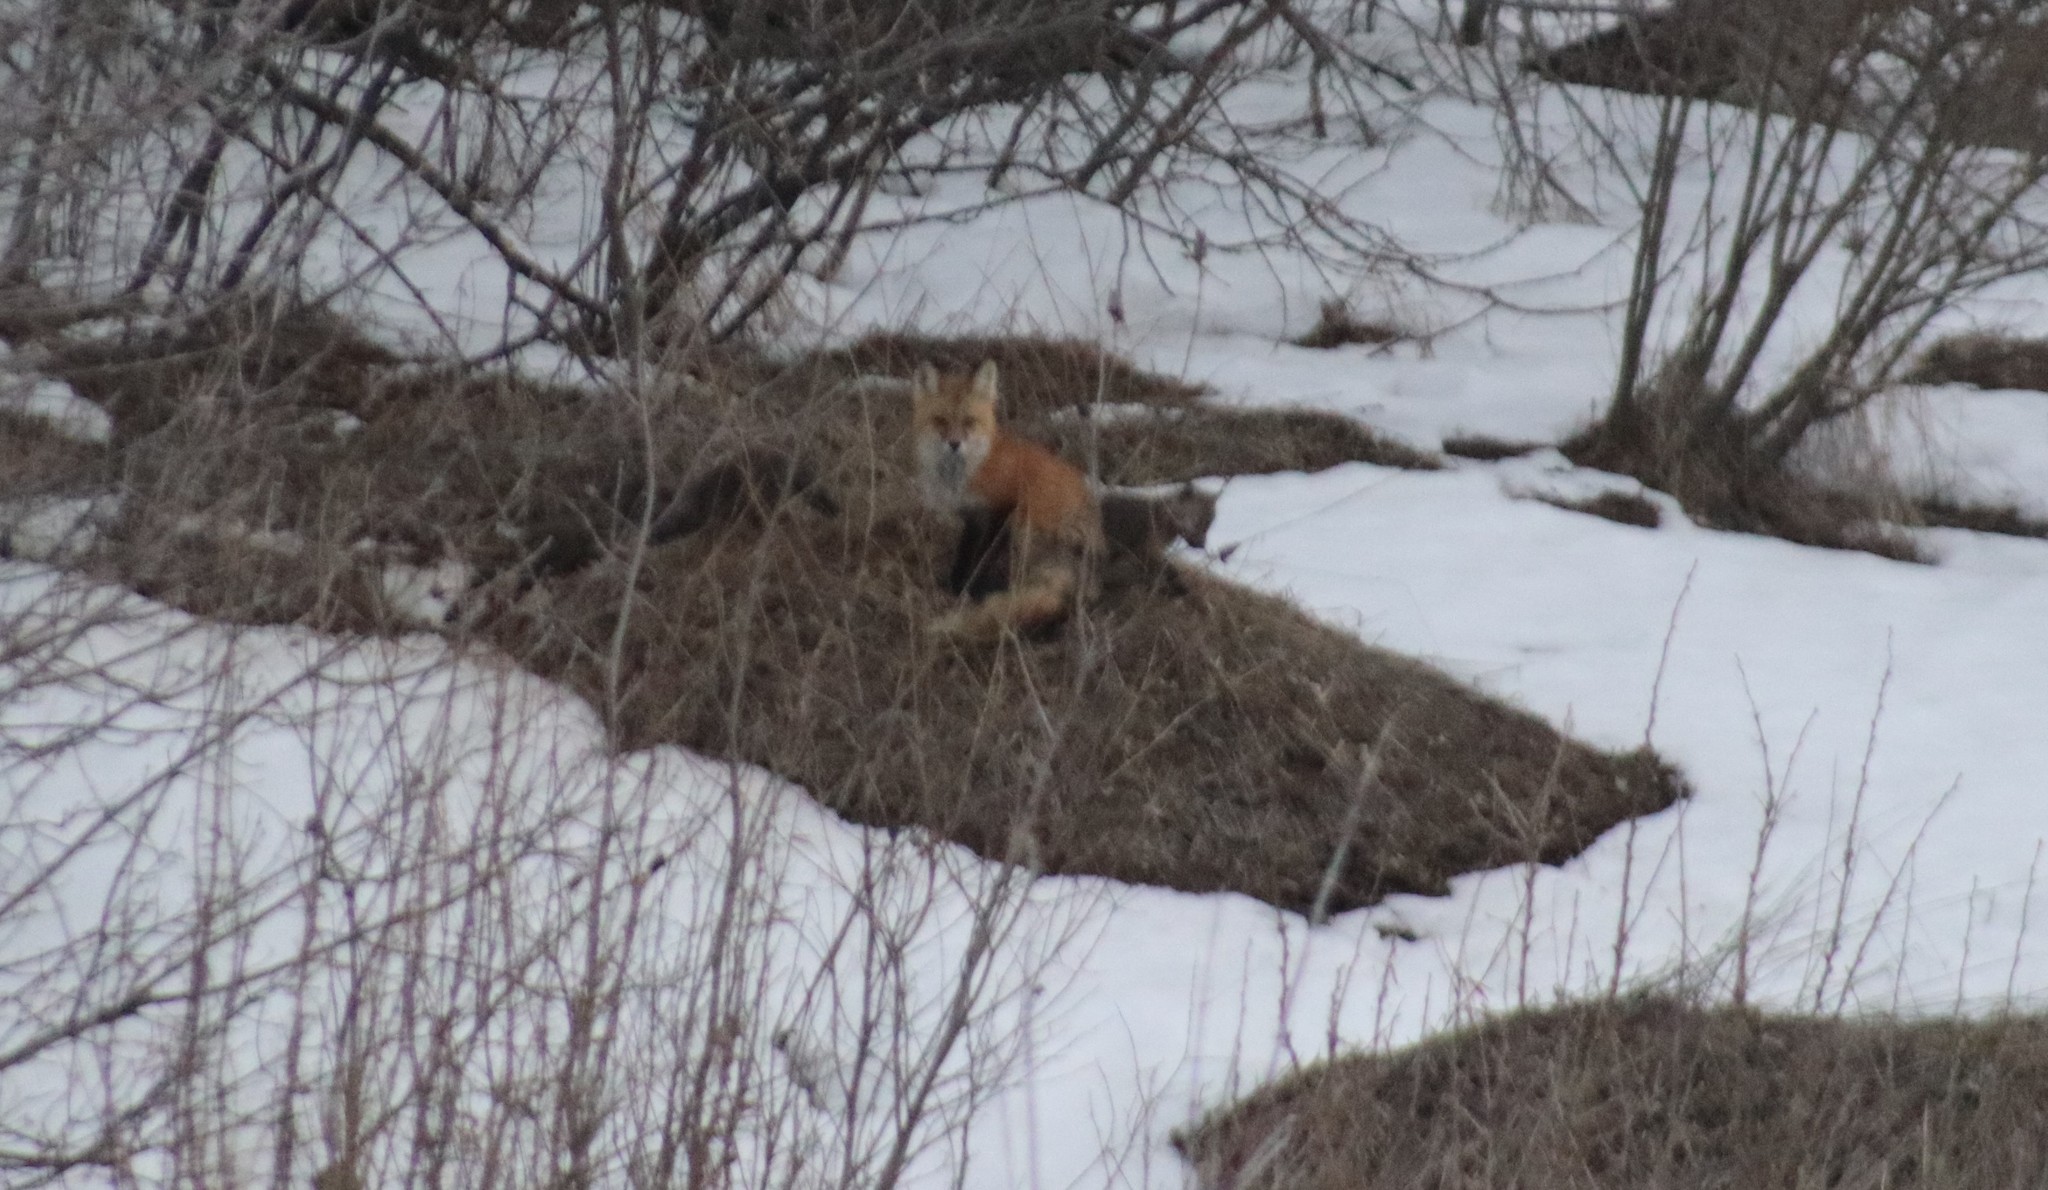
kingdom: Animalia
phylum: Chordata
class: Mammalia
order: Carnivora
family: Canidae
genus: Vulpes
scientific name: Vulpes vulpes
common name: Red fox
